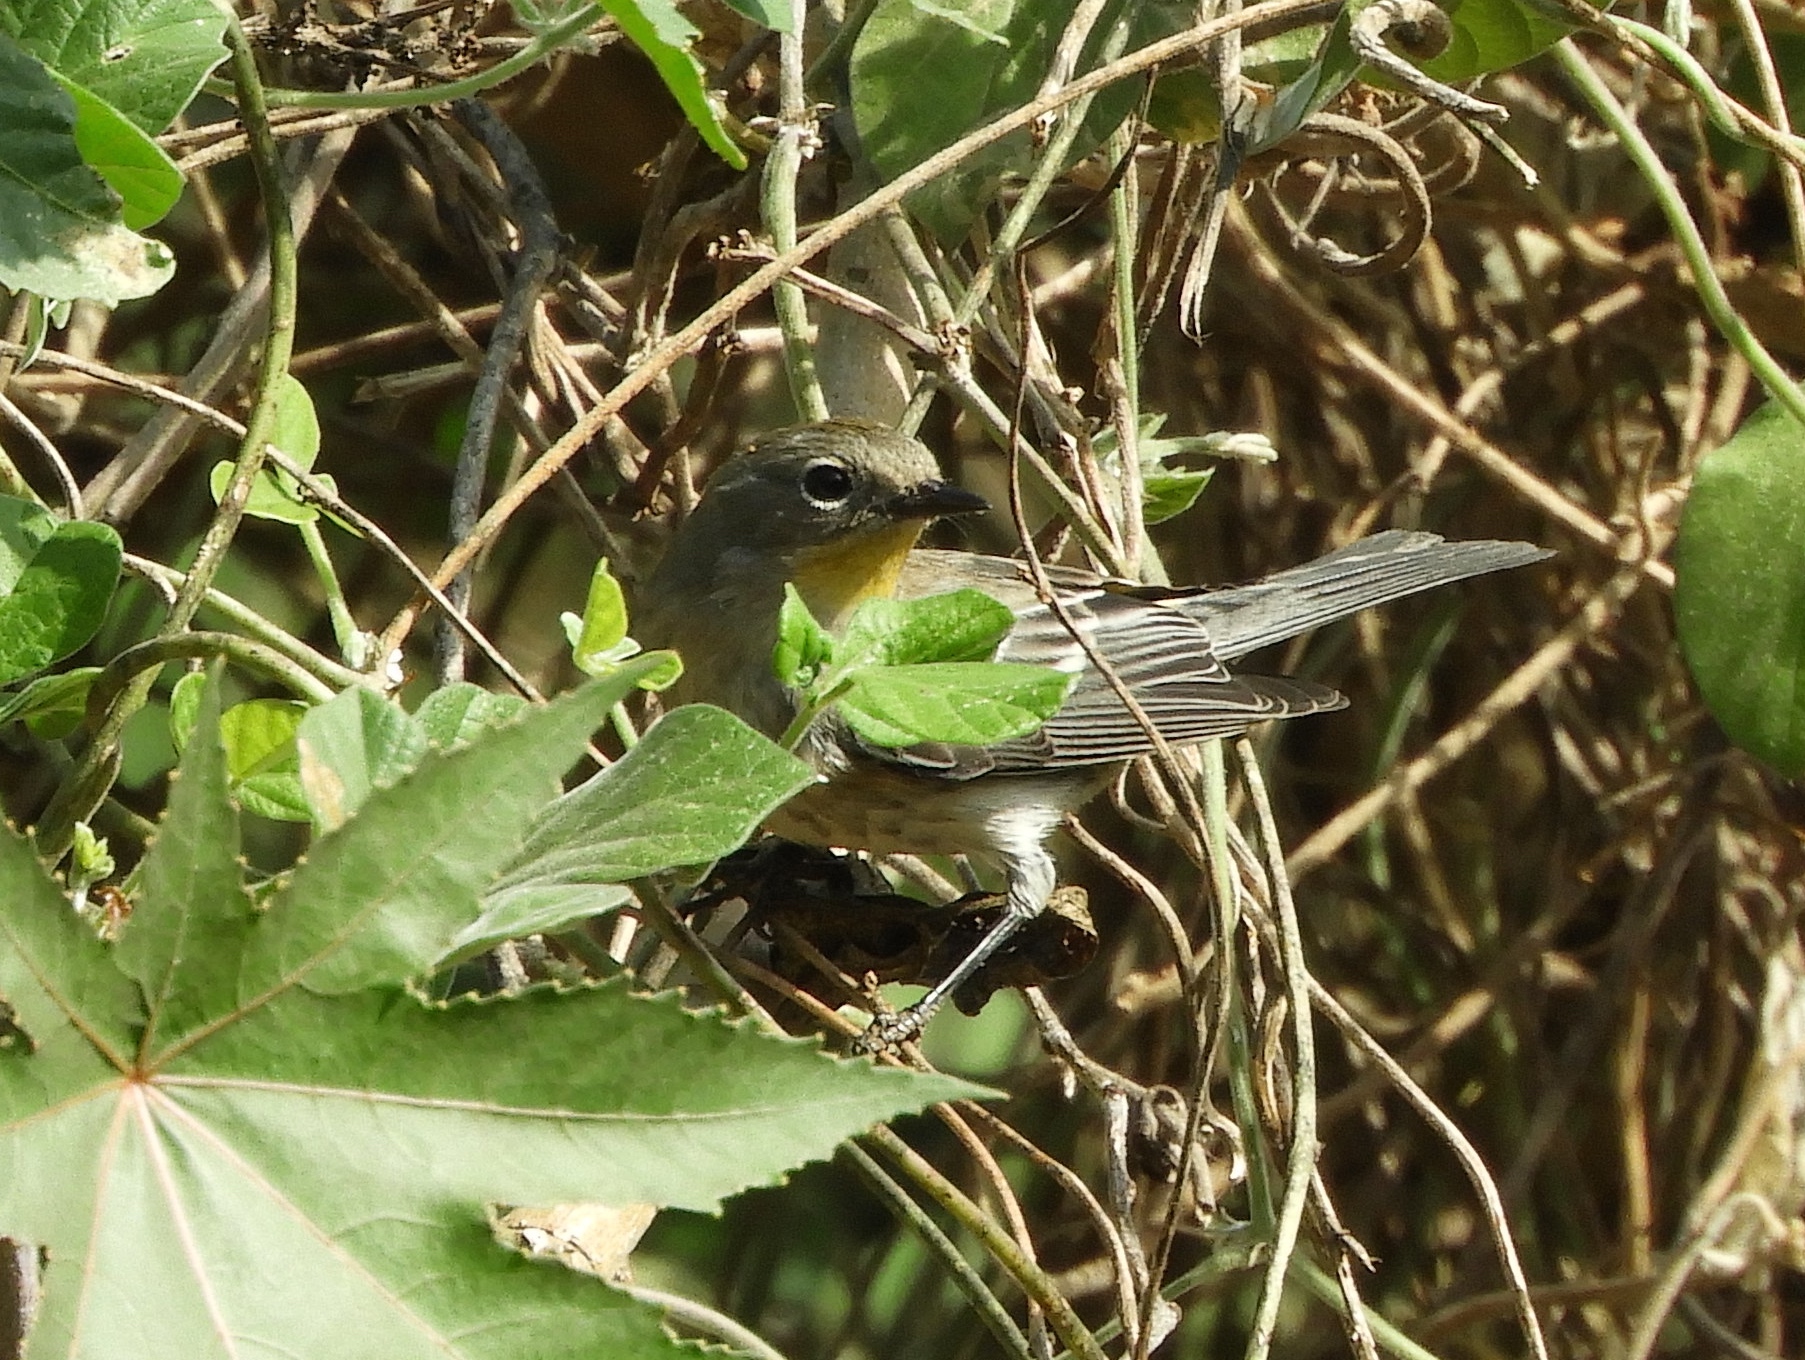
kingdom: Animalia
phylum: Chordata
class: Aves
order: Passeriformes
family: Parulidae
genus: Setophaga
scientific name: Setophaga auduboni
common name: Audubon's warbler
